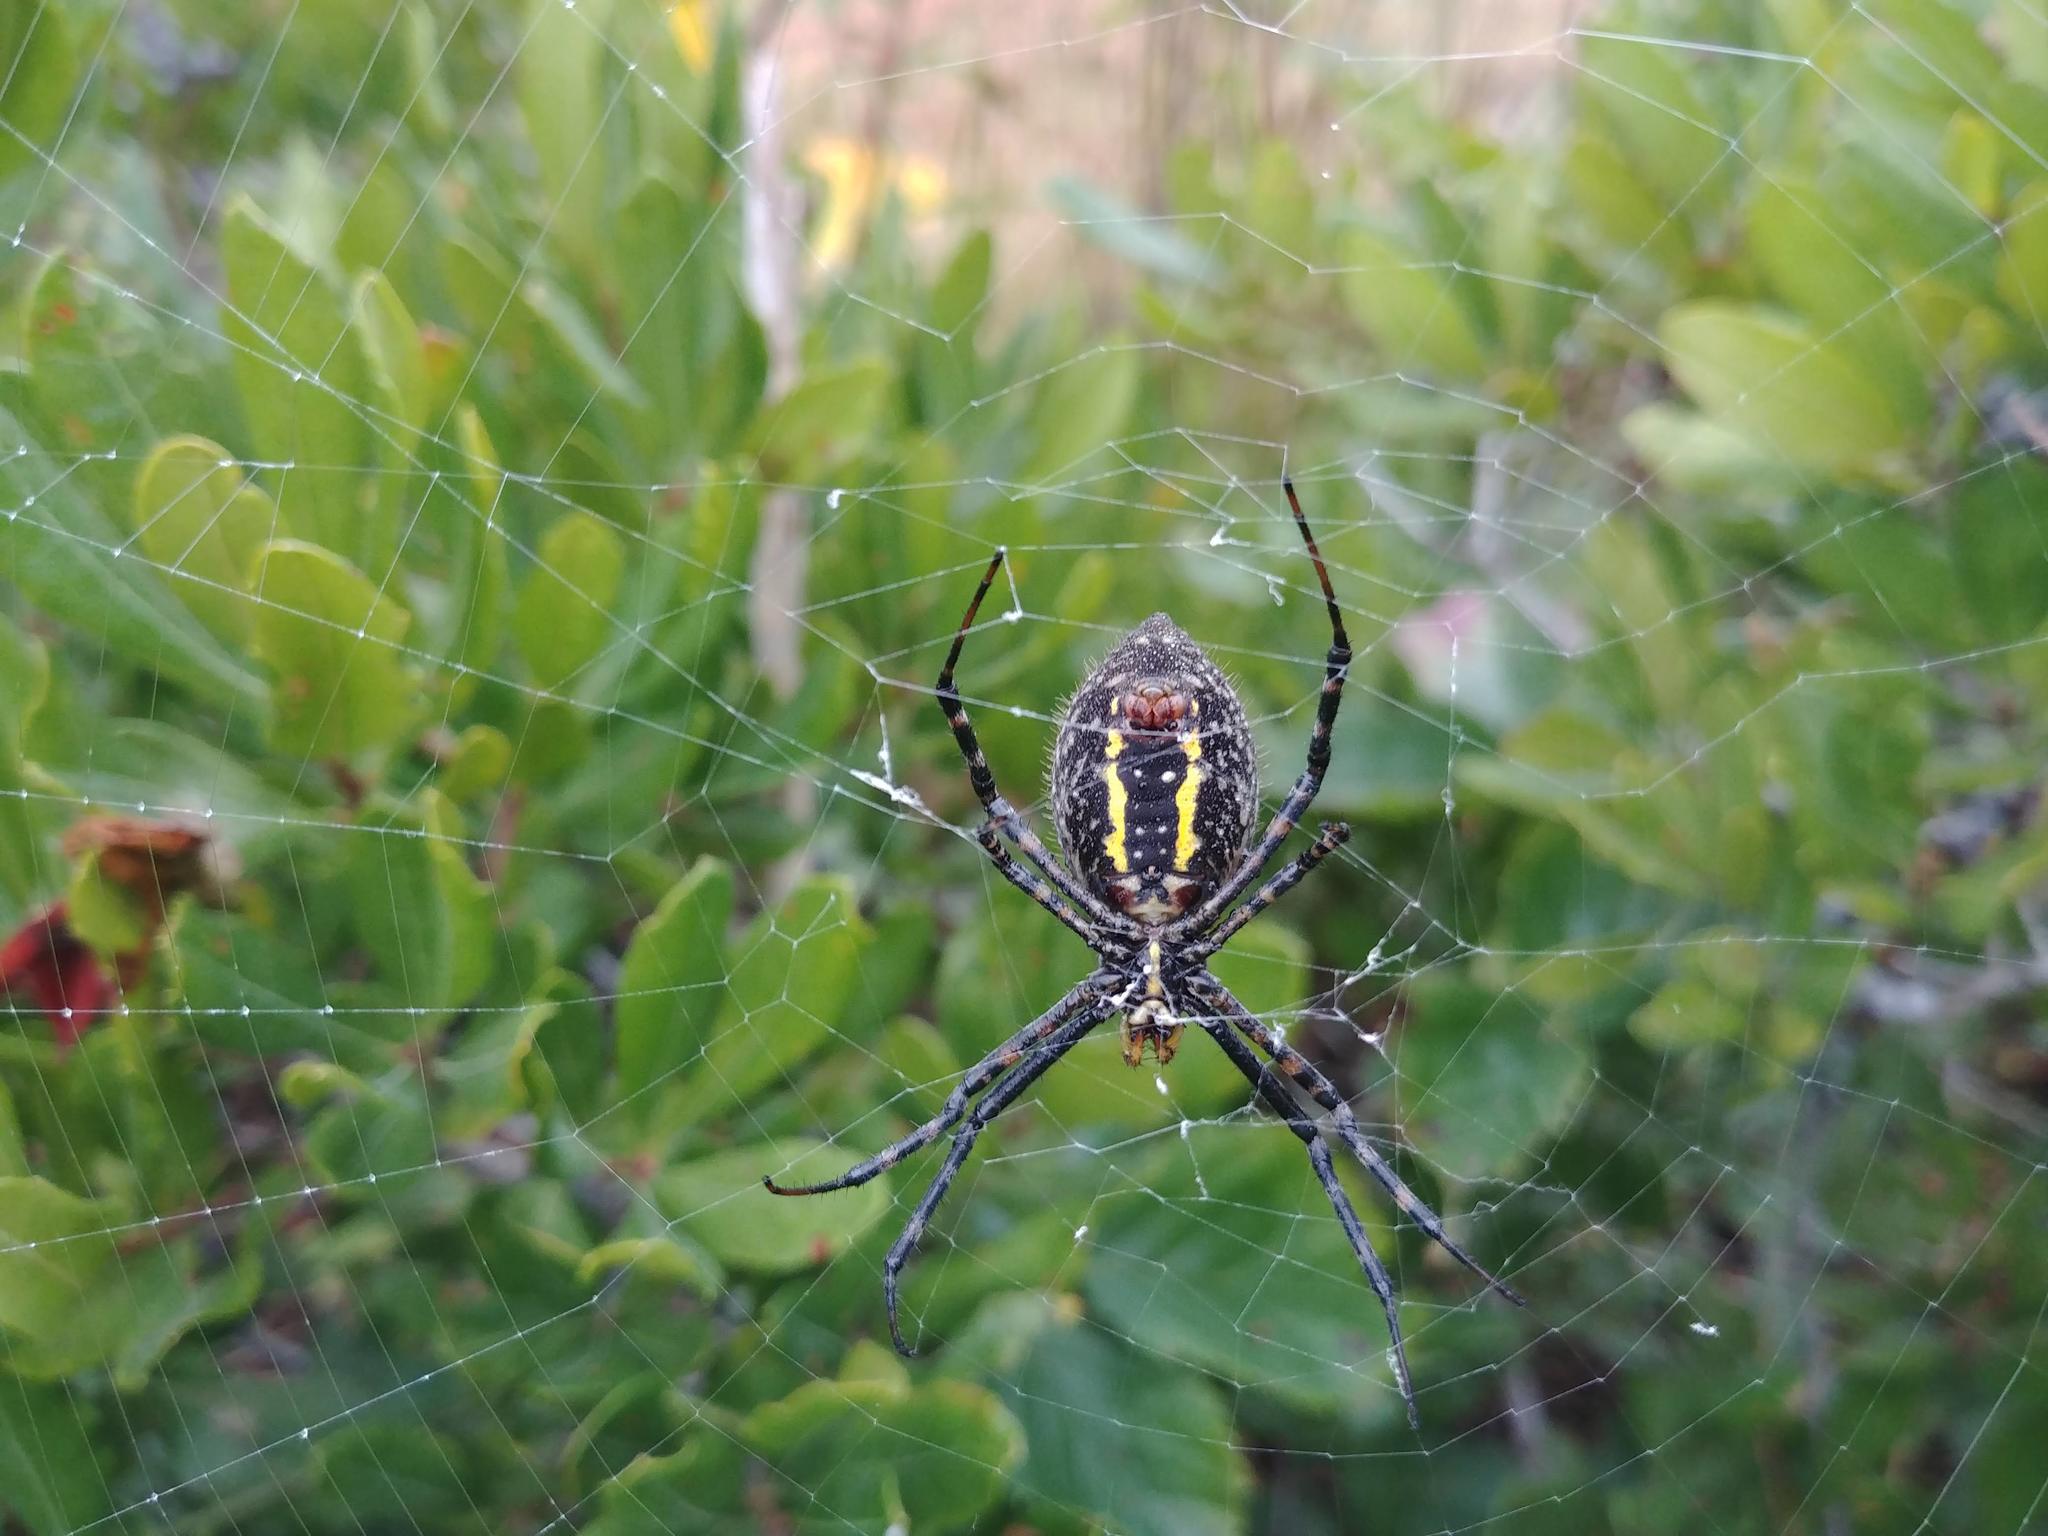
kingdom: Animalia
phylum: Arthropoda
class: Arachnida
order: Araneae
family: Araneidae
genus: Argiope
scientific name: Argiope trifasciata
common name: Banded garden spider
